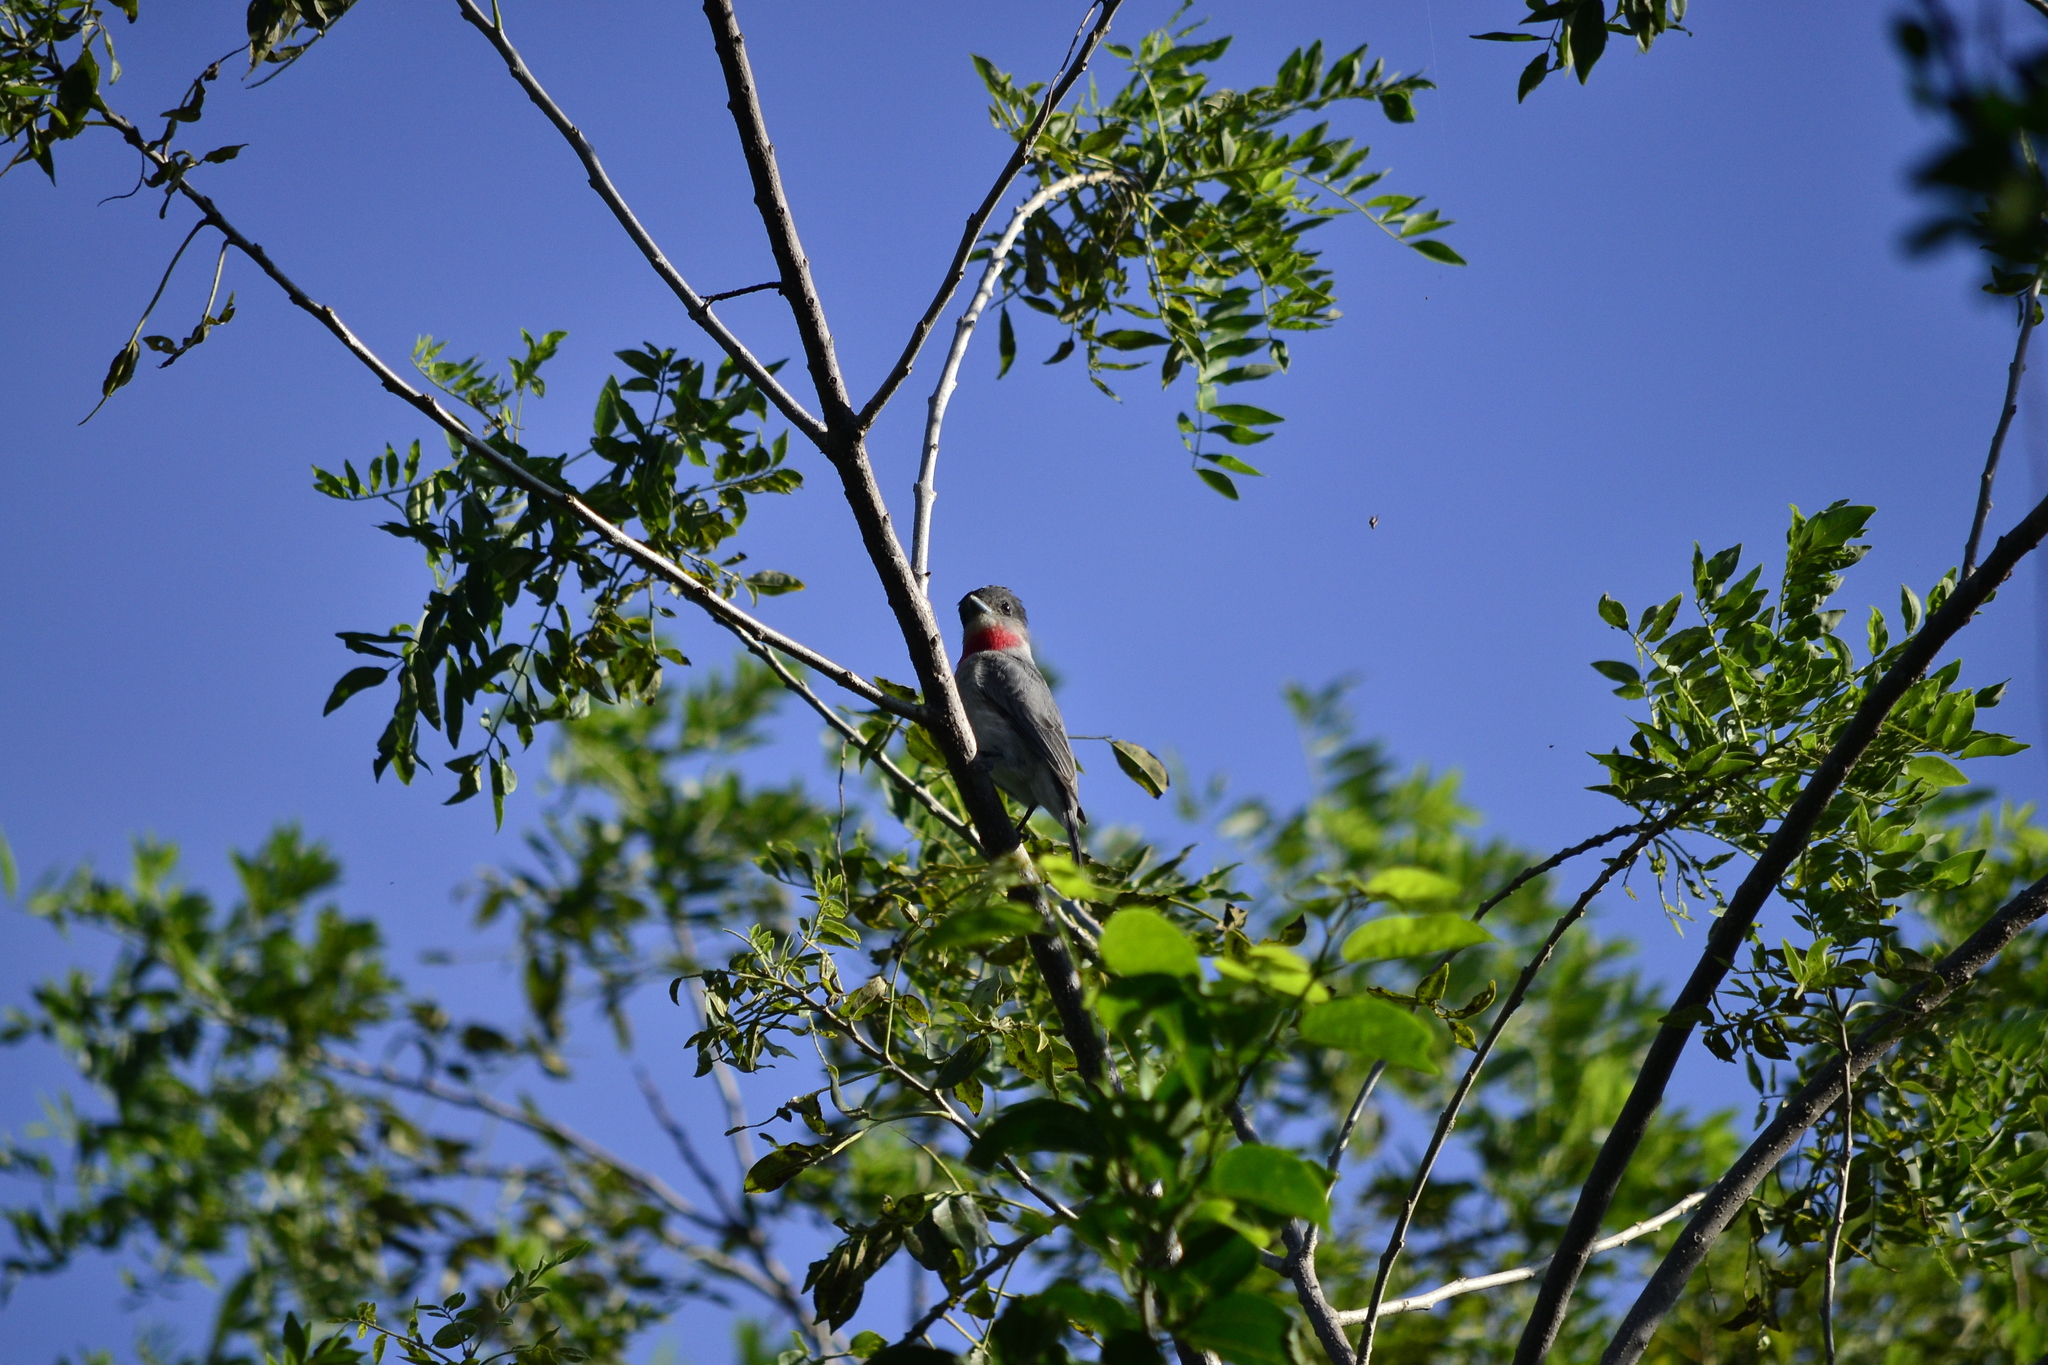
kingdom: Animalia
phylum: Chordata
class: Aves
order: Passeriformes
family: Cotingidae
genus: Pachyramphus
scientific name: Pachyramphus aglaiae
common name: Rose-throated becard
